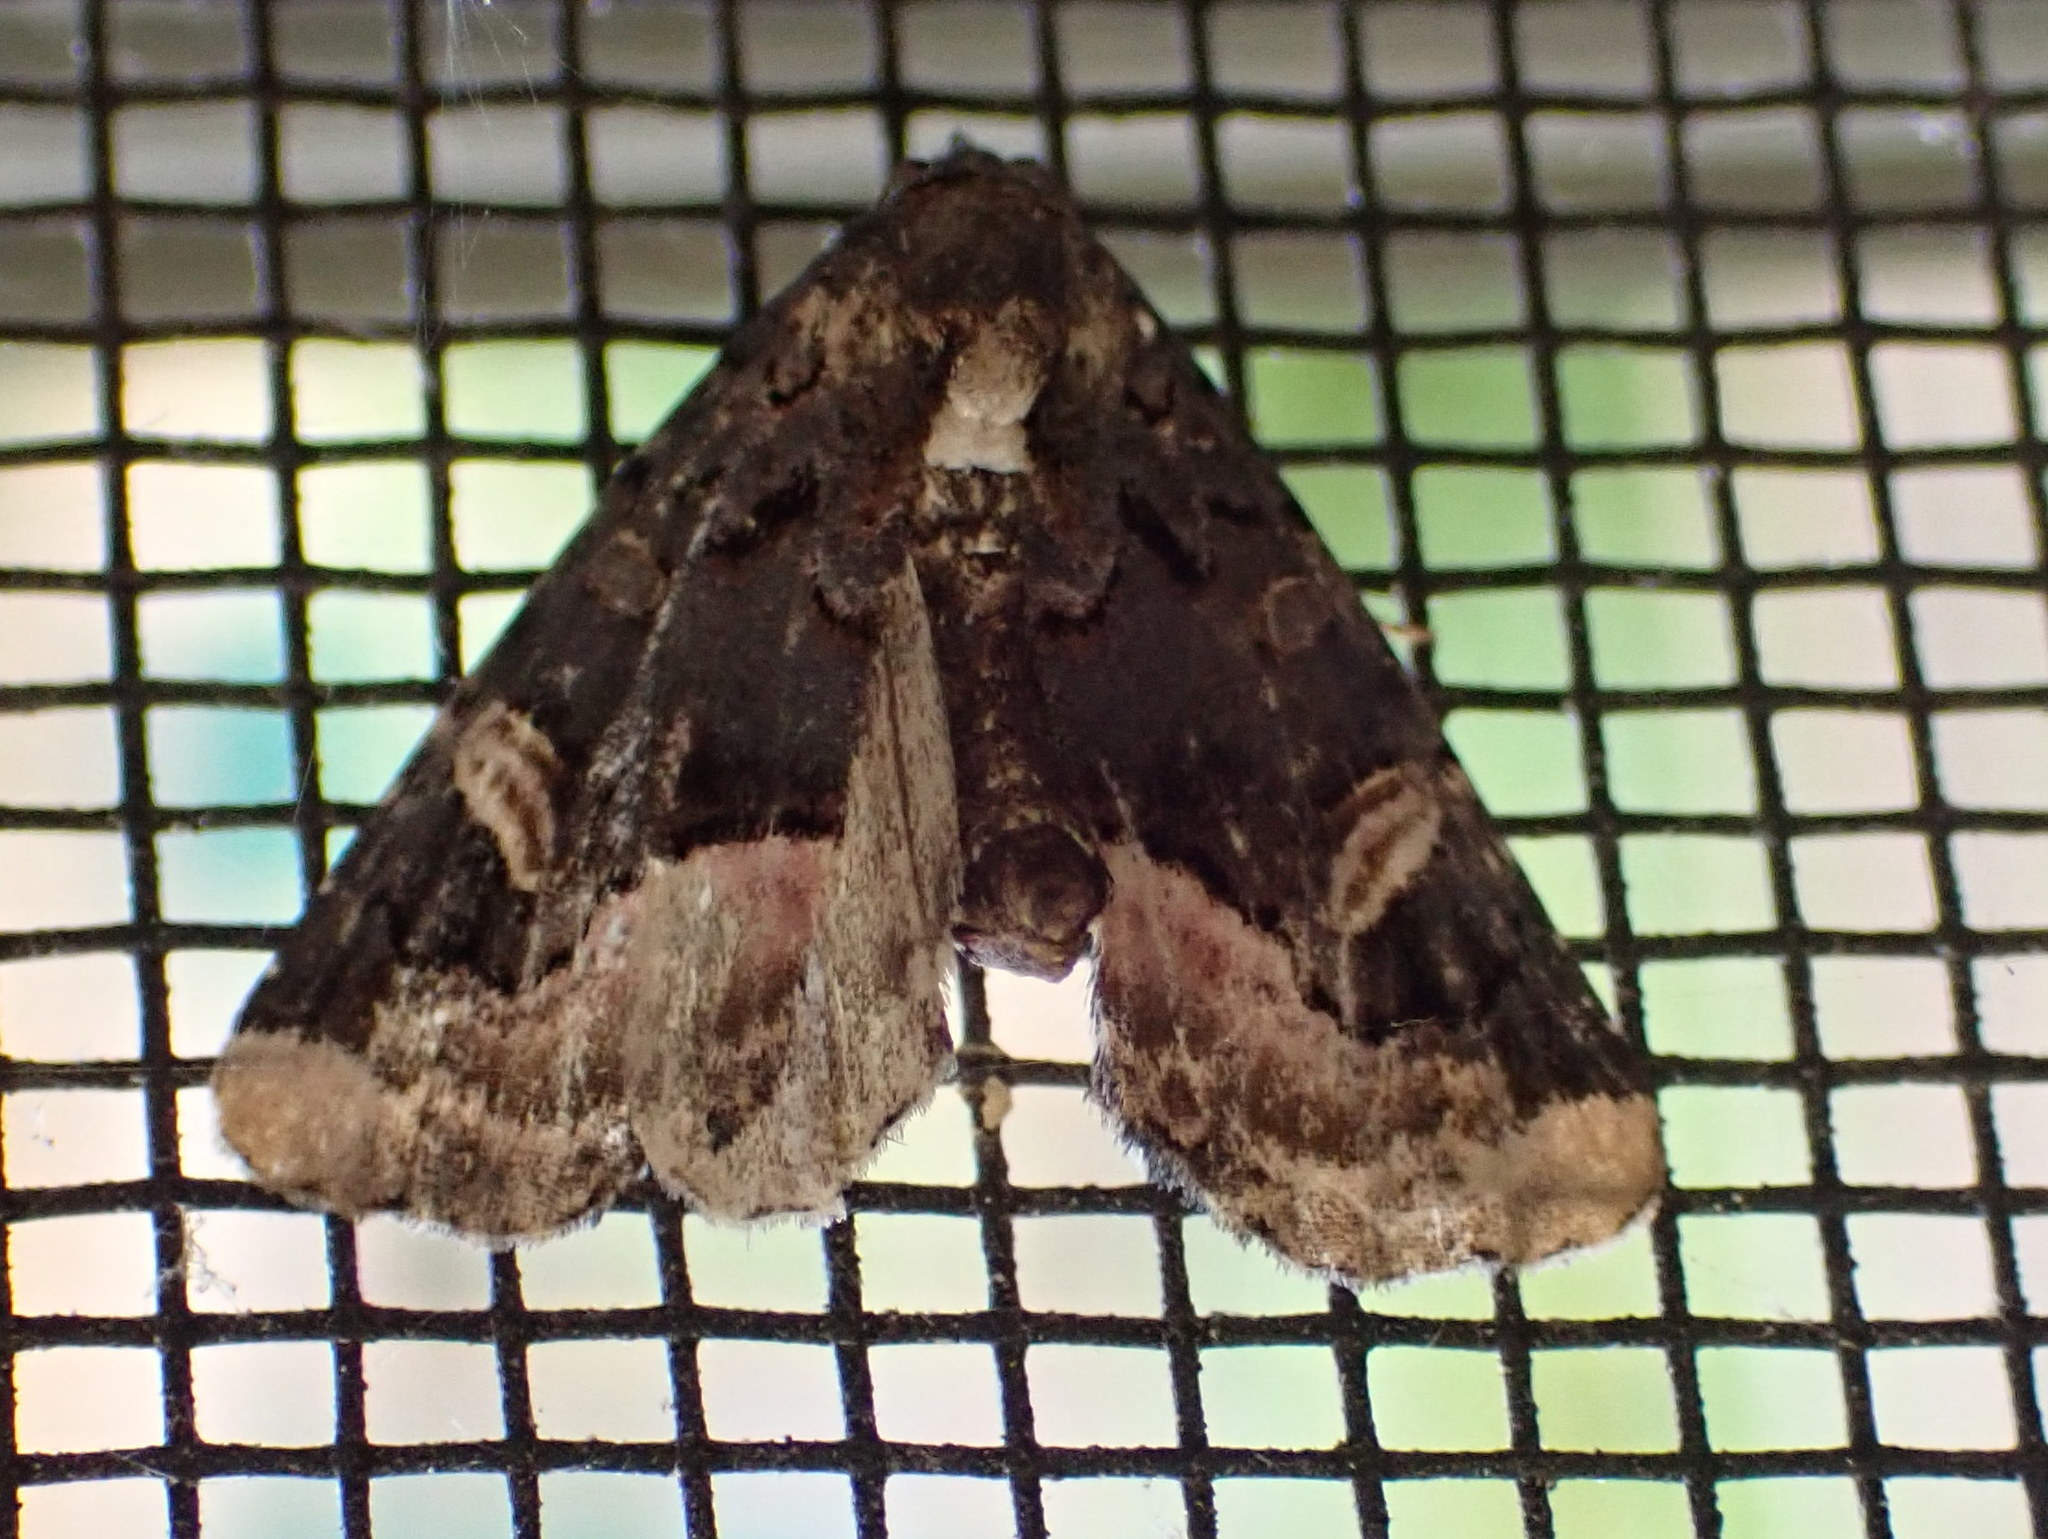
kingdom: Animalia
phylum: Arthropoda
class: Insecta
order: Lepidoptera
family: Noctuidae
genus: Homophoberia
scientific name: Homophoberia apicosa
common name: Black wedge-spot
